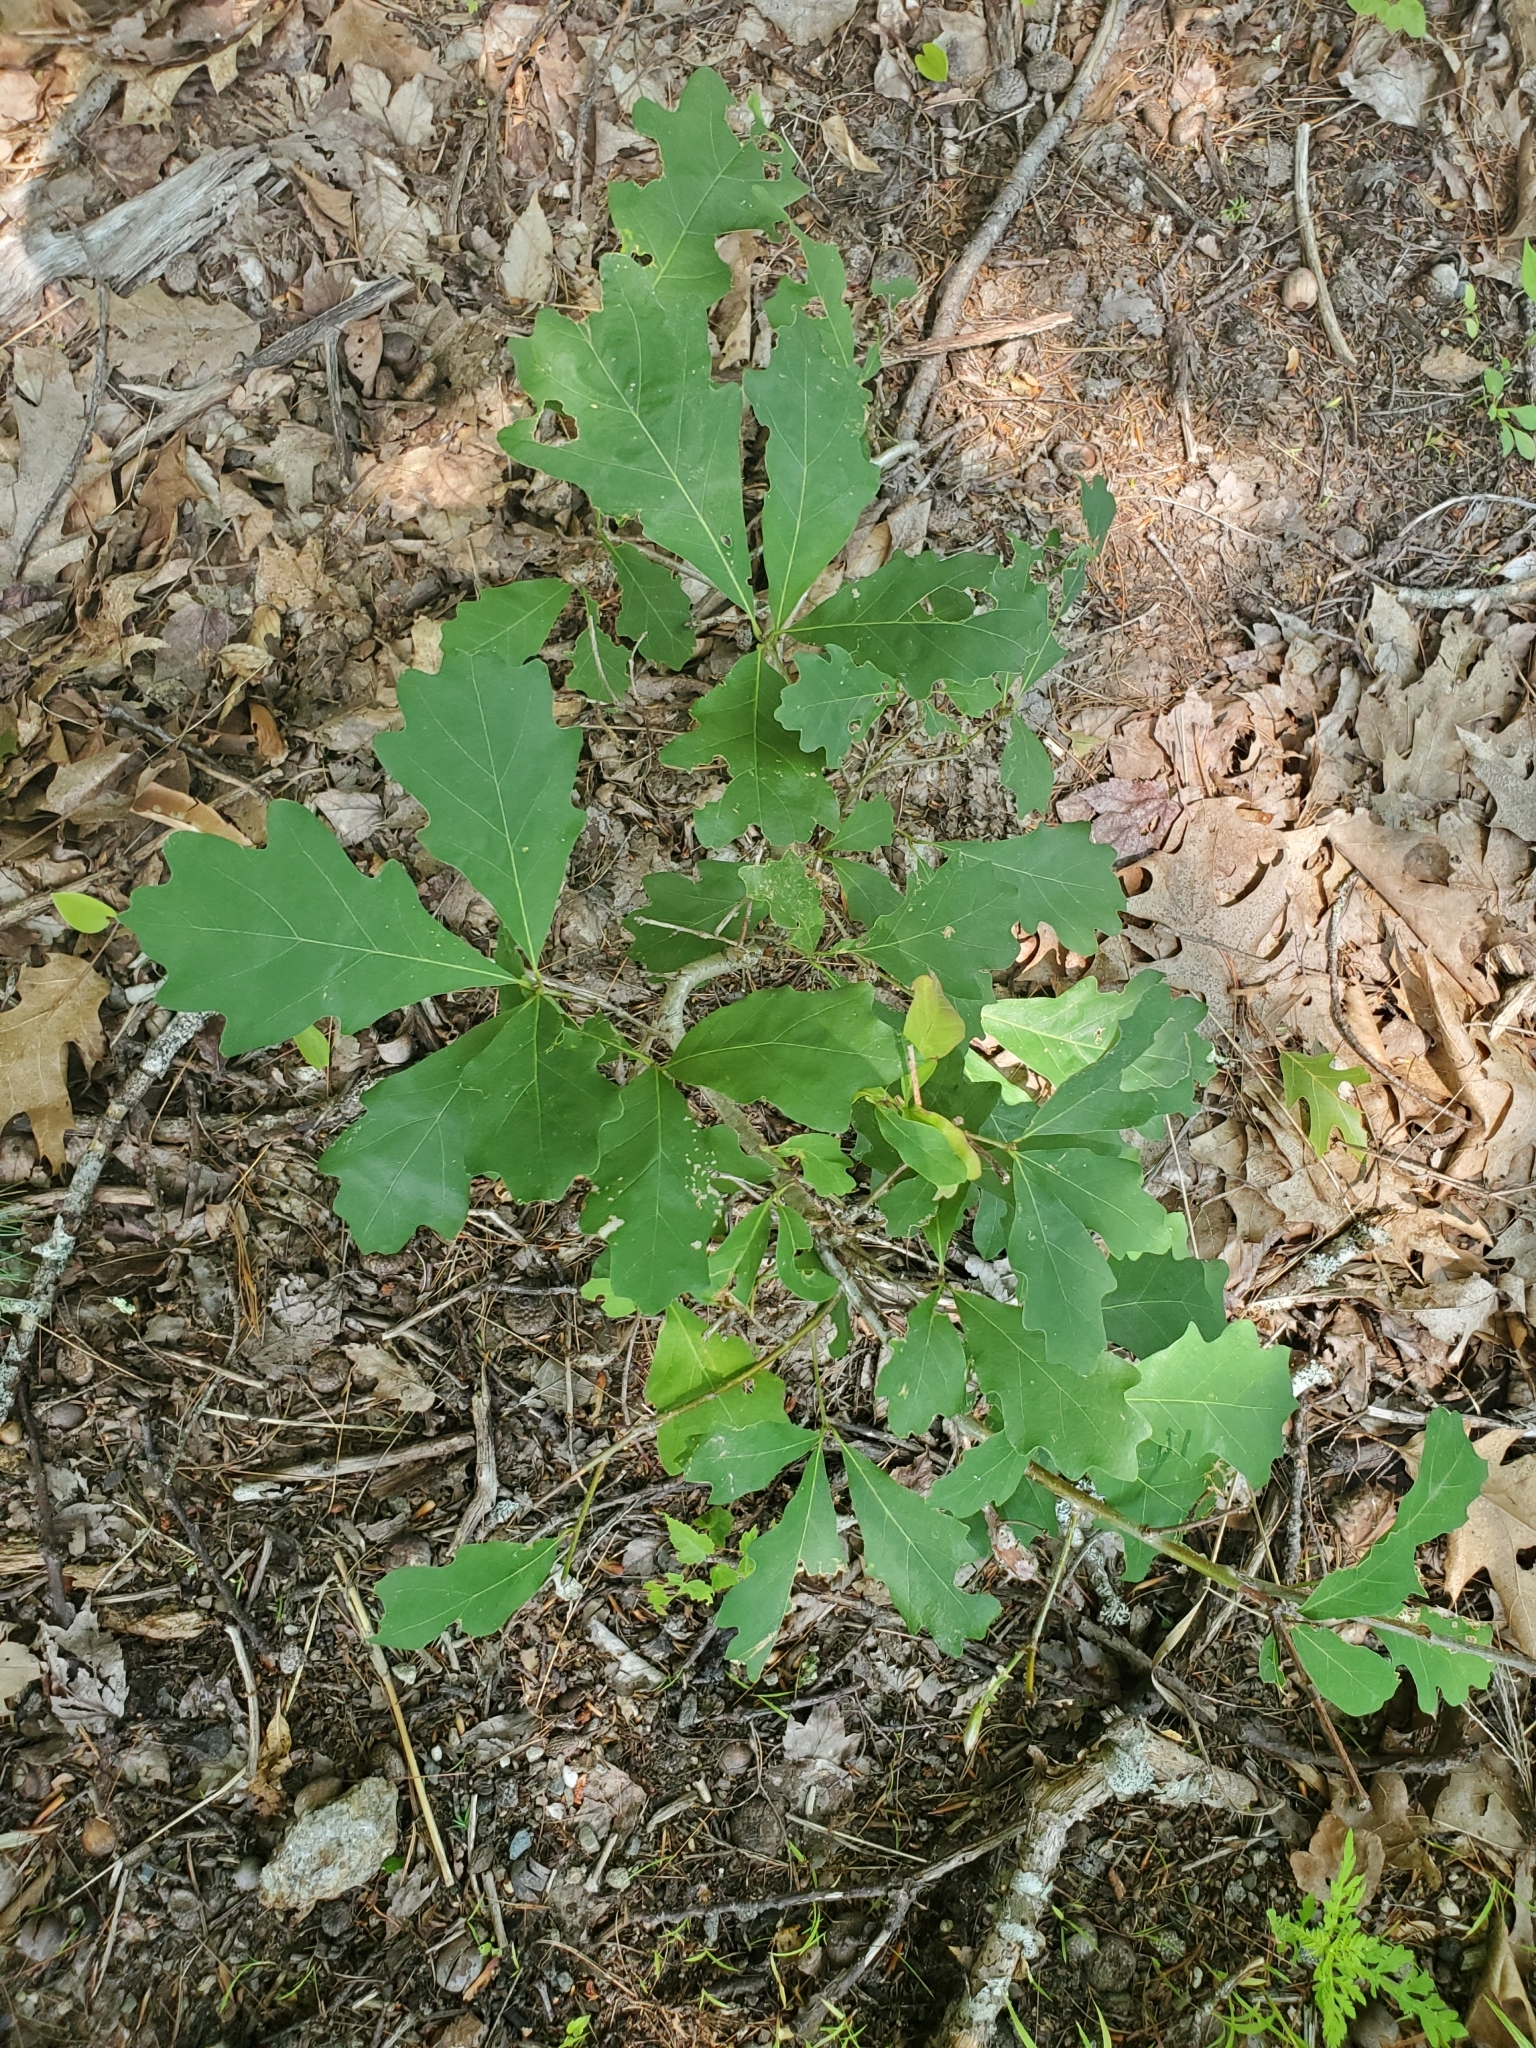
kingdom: Plantae
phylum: Tracheophyta
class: Magnoliopsida
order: Fagales
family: Fagaceae
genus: Quercus
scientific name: Quercus alba
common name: White oak
